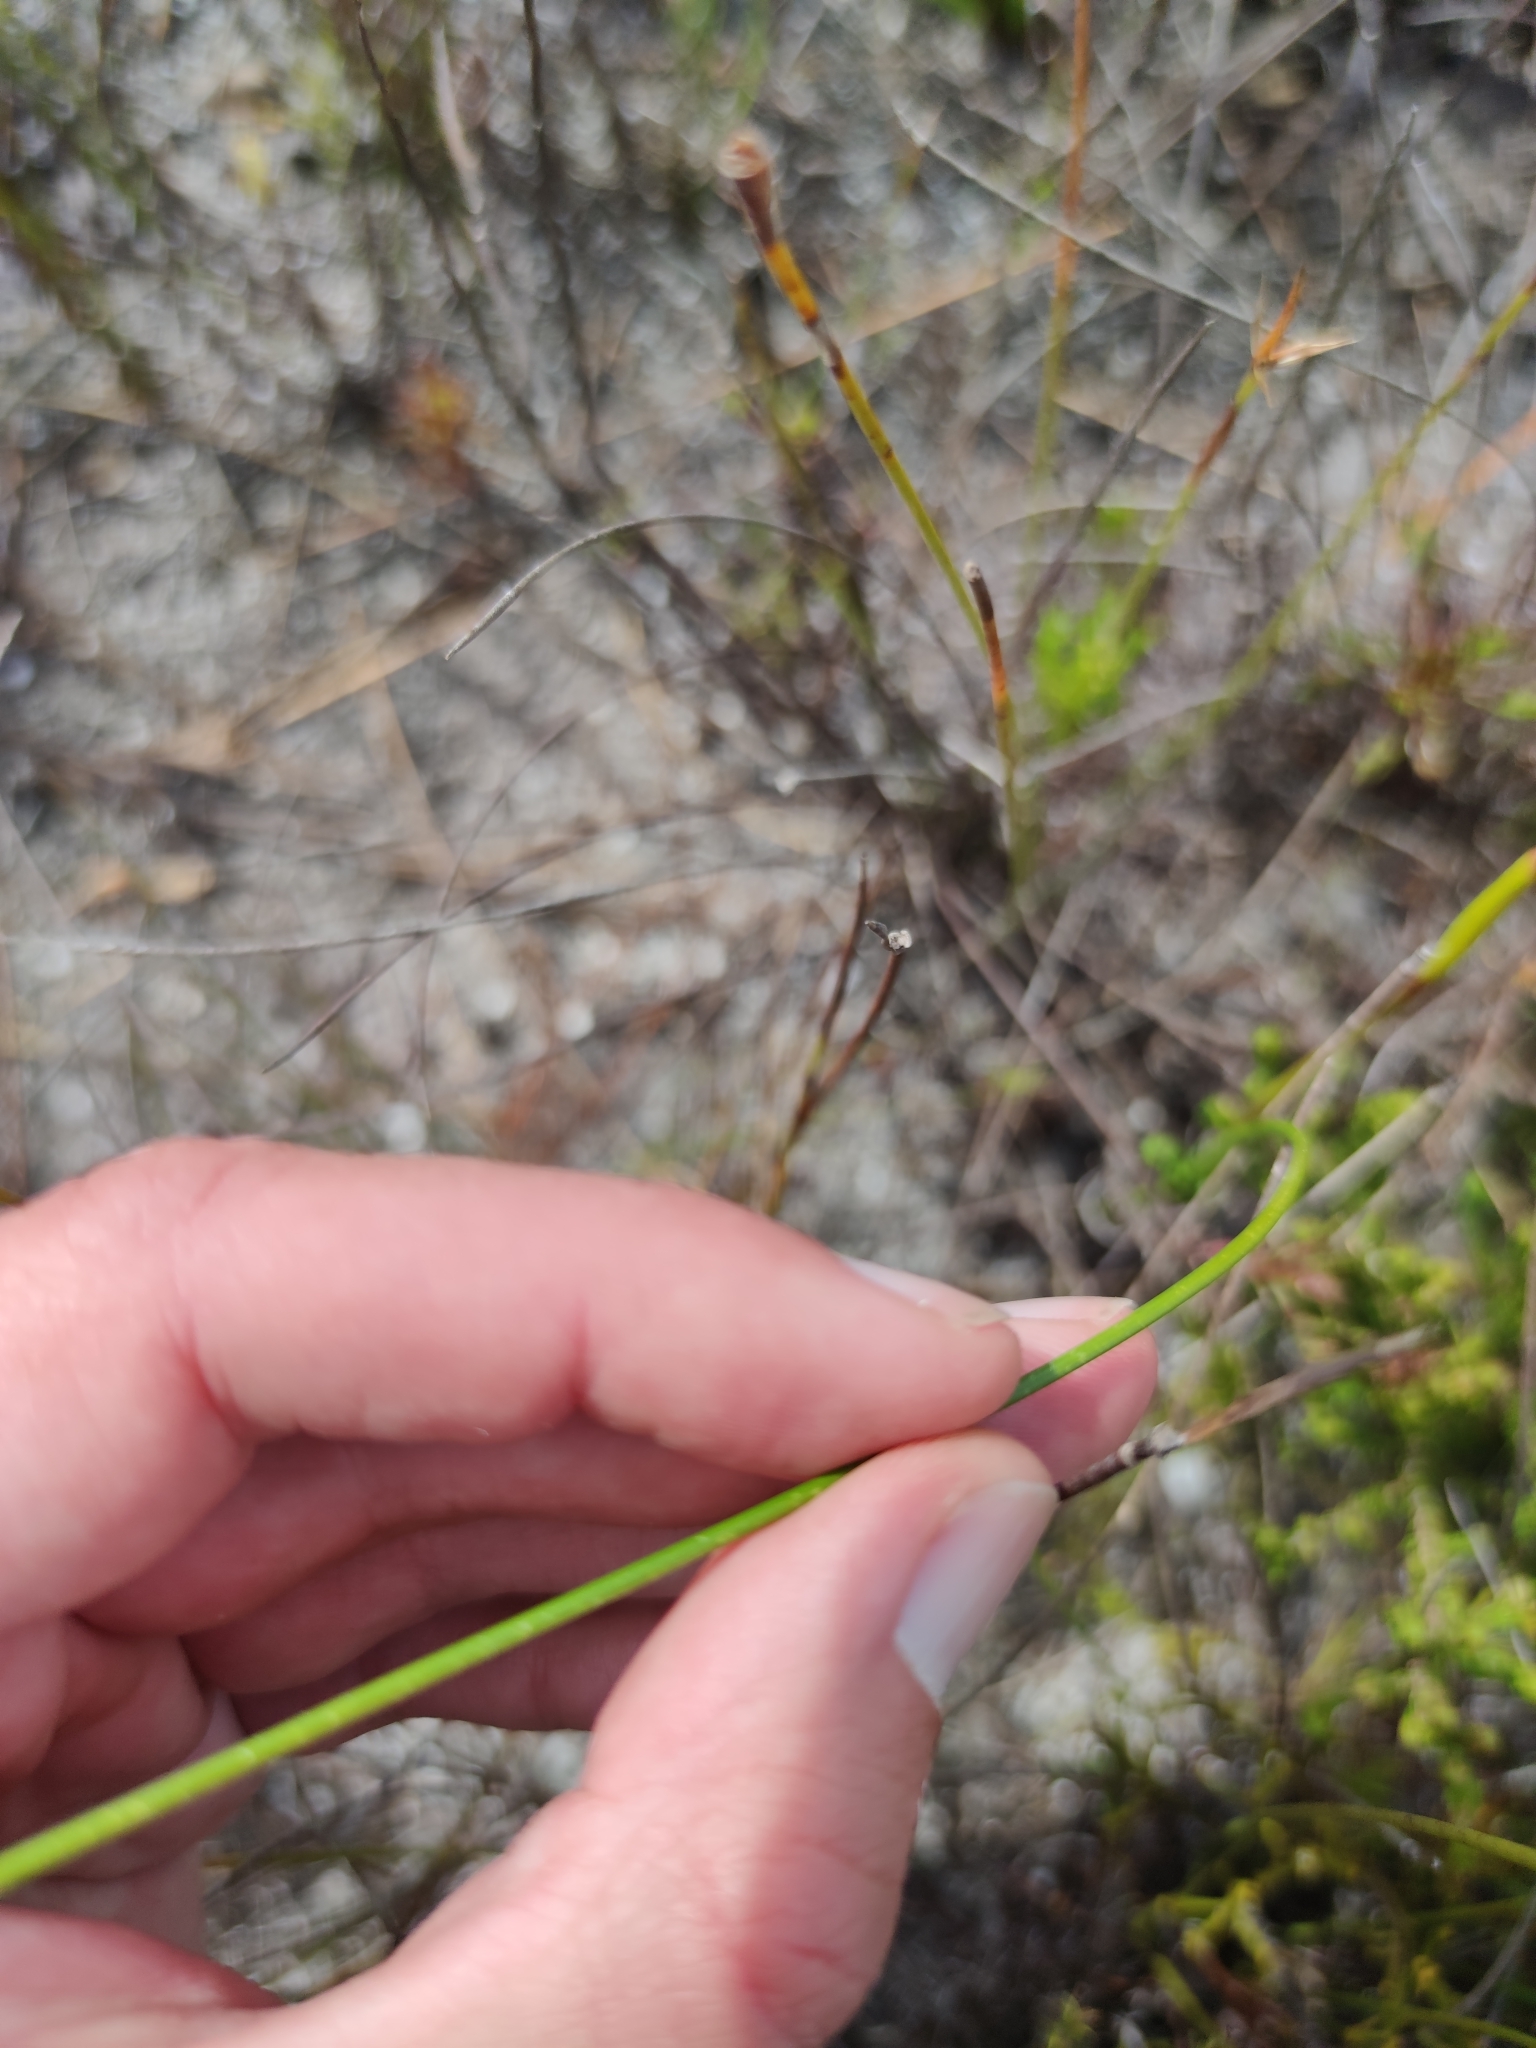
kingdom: Plantae
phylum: Tracheophyta
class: Liliopsida
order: Asparagales
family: Iridaceae
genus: Moraea
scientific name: Moraea neglecta
